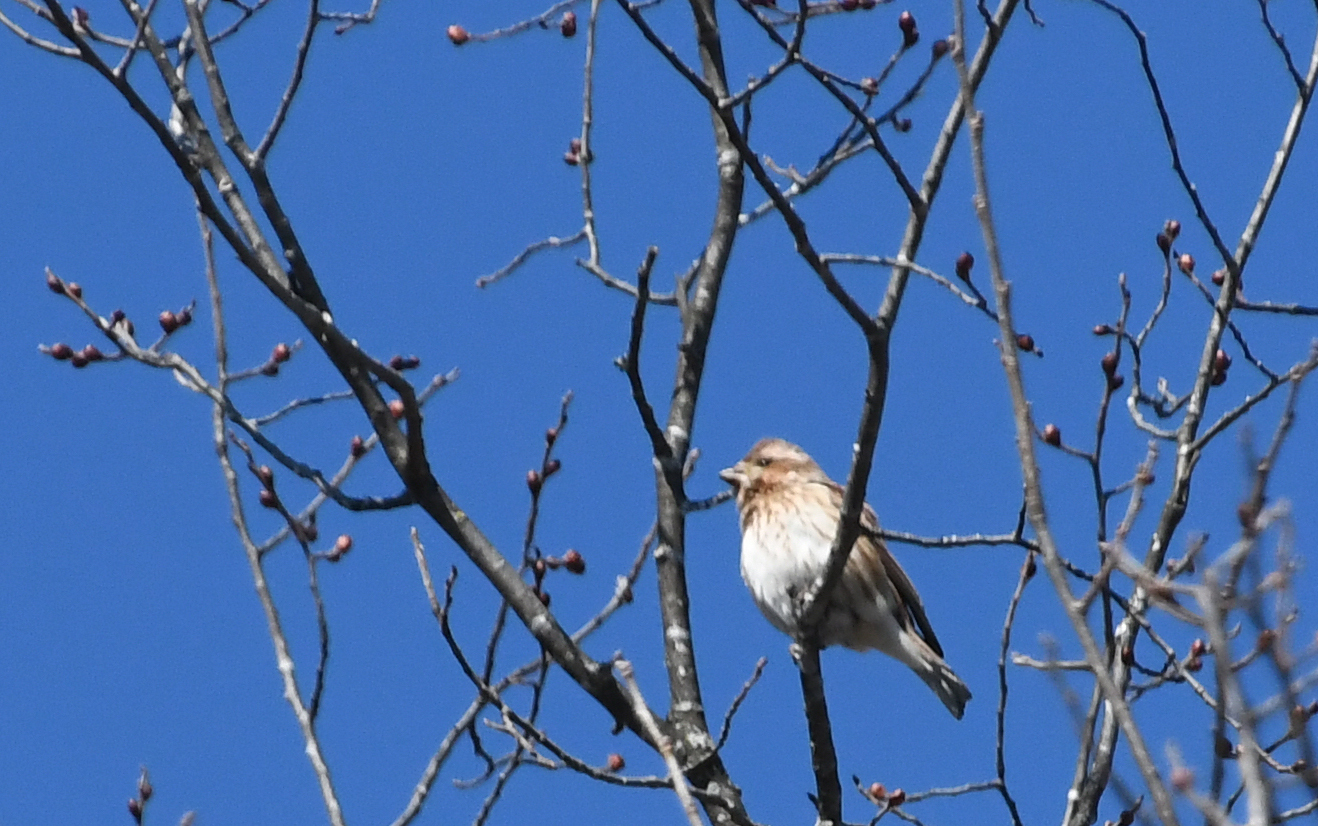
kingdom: Animalia
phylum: Chordata
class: Aves
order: Passeriformes
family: Fringillidae
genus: Haemorhous
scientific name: Haemorhous purpureus
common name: Purple finch
